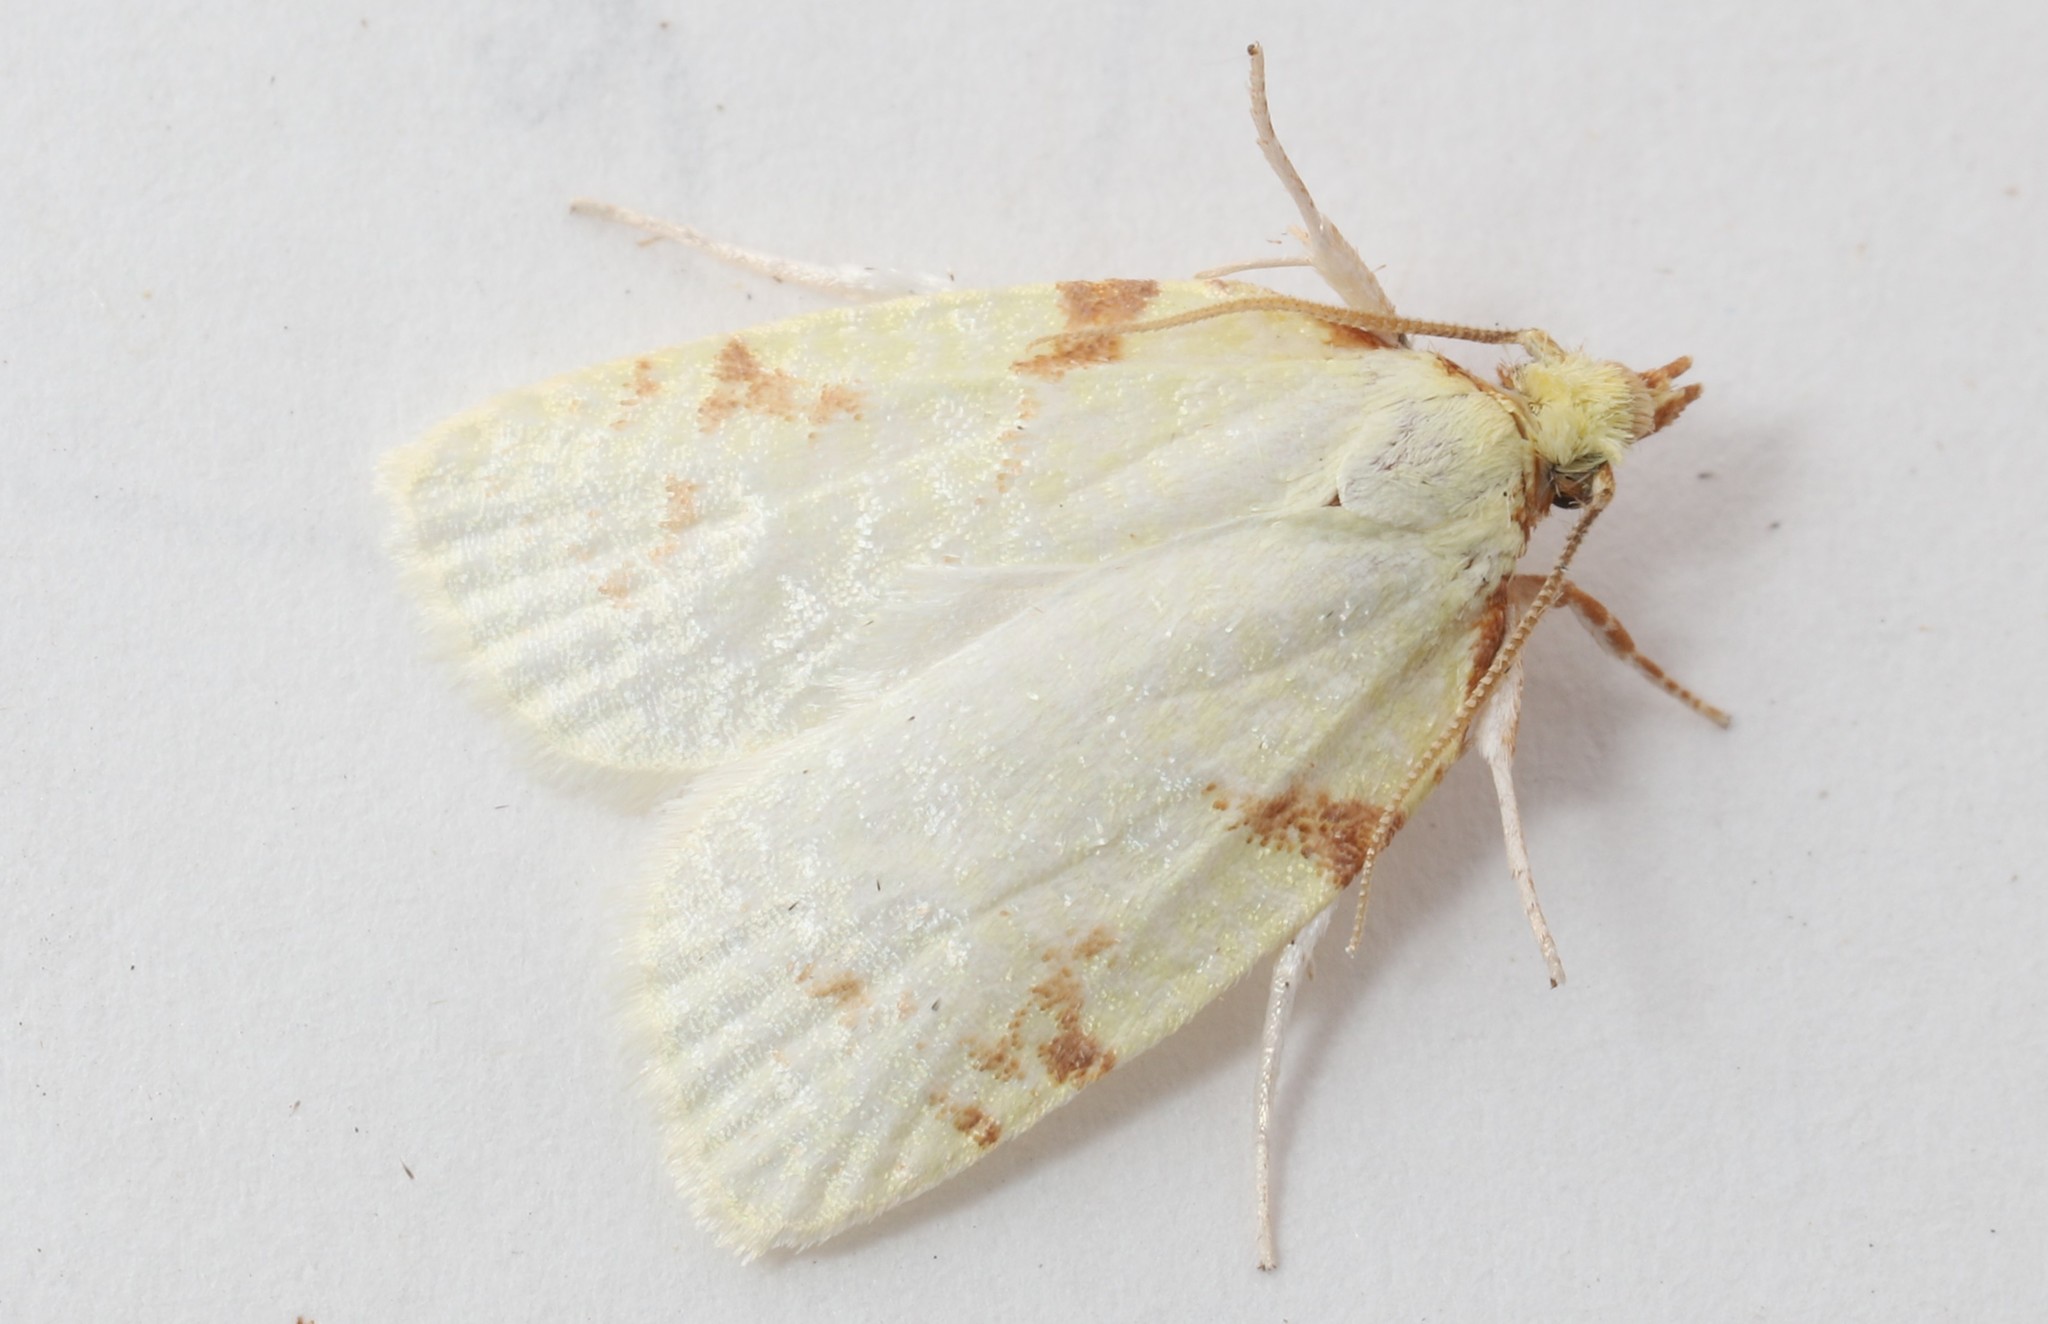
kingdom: Animalia
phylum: Arthropoda
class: Insecta
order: Lepidoptera
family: Tortricidae
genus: Cenopis
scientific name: Cenopis pettitana
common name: Maple-basswood leafroller moth
